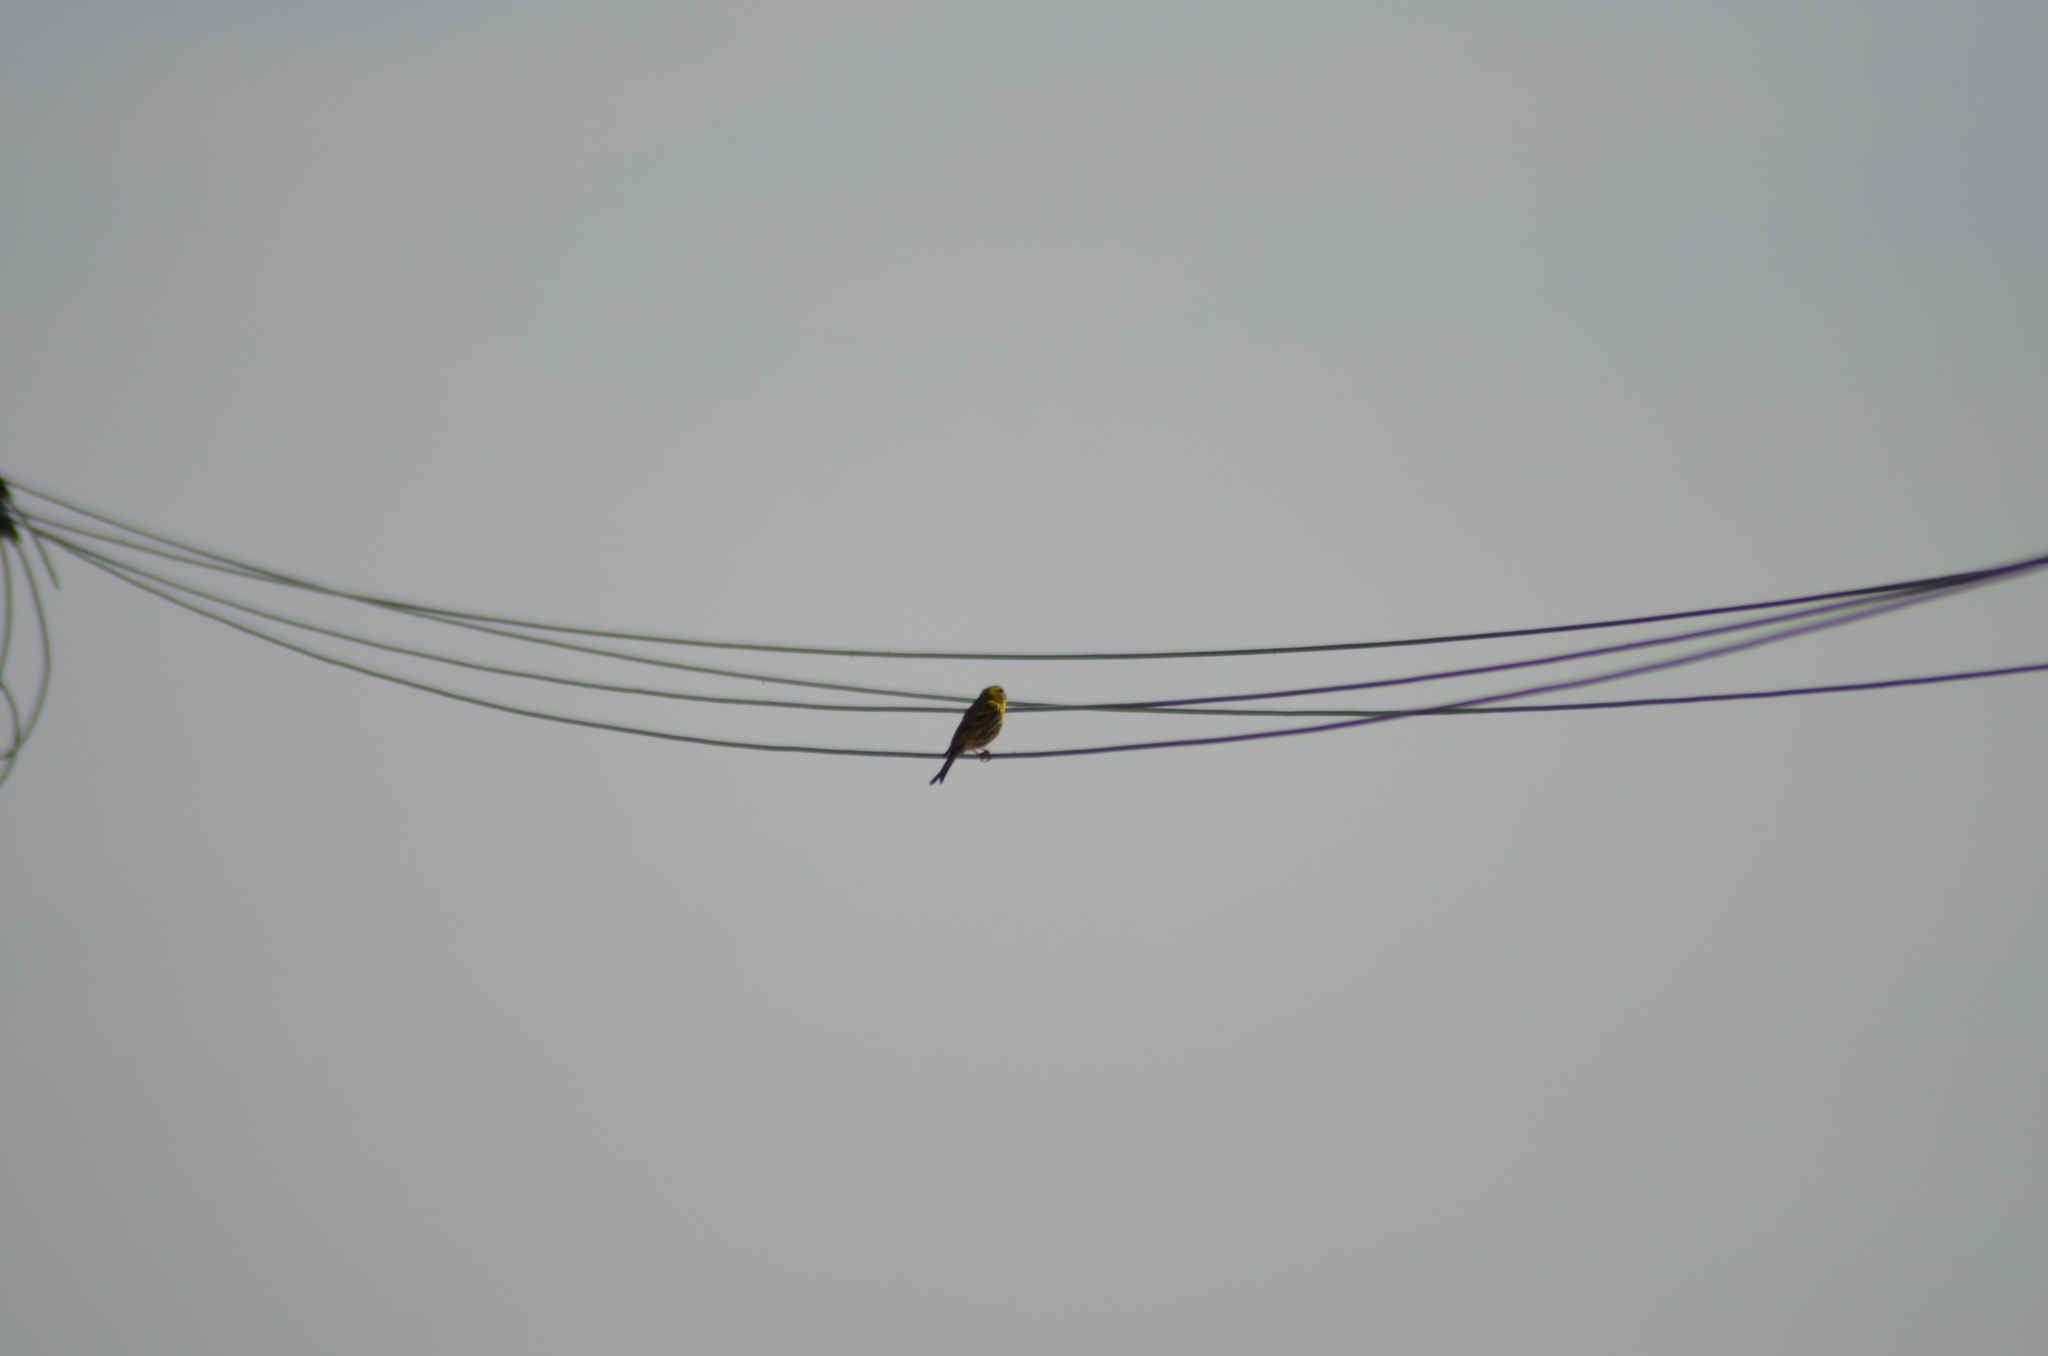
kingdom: Animalia
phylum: Chordata
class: Aves
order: Passeriformes
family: Fringillidae
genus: Serinus
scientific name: Serinus serinus
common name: European serin
